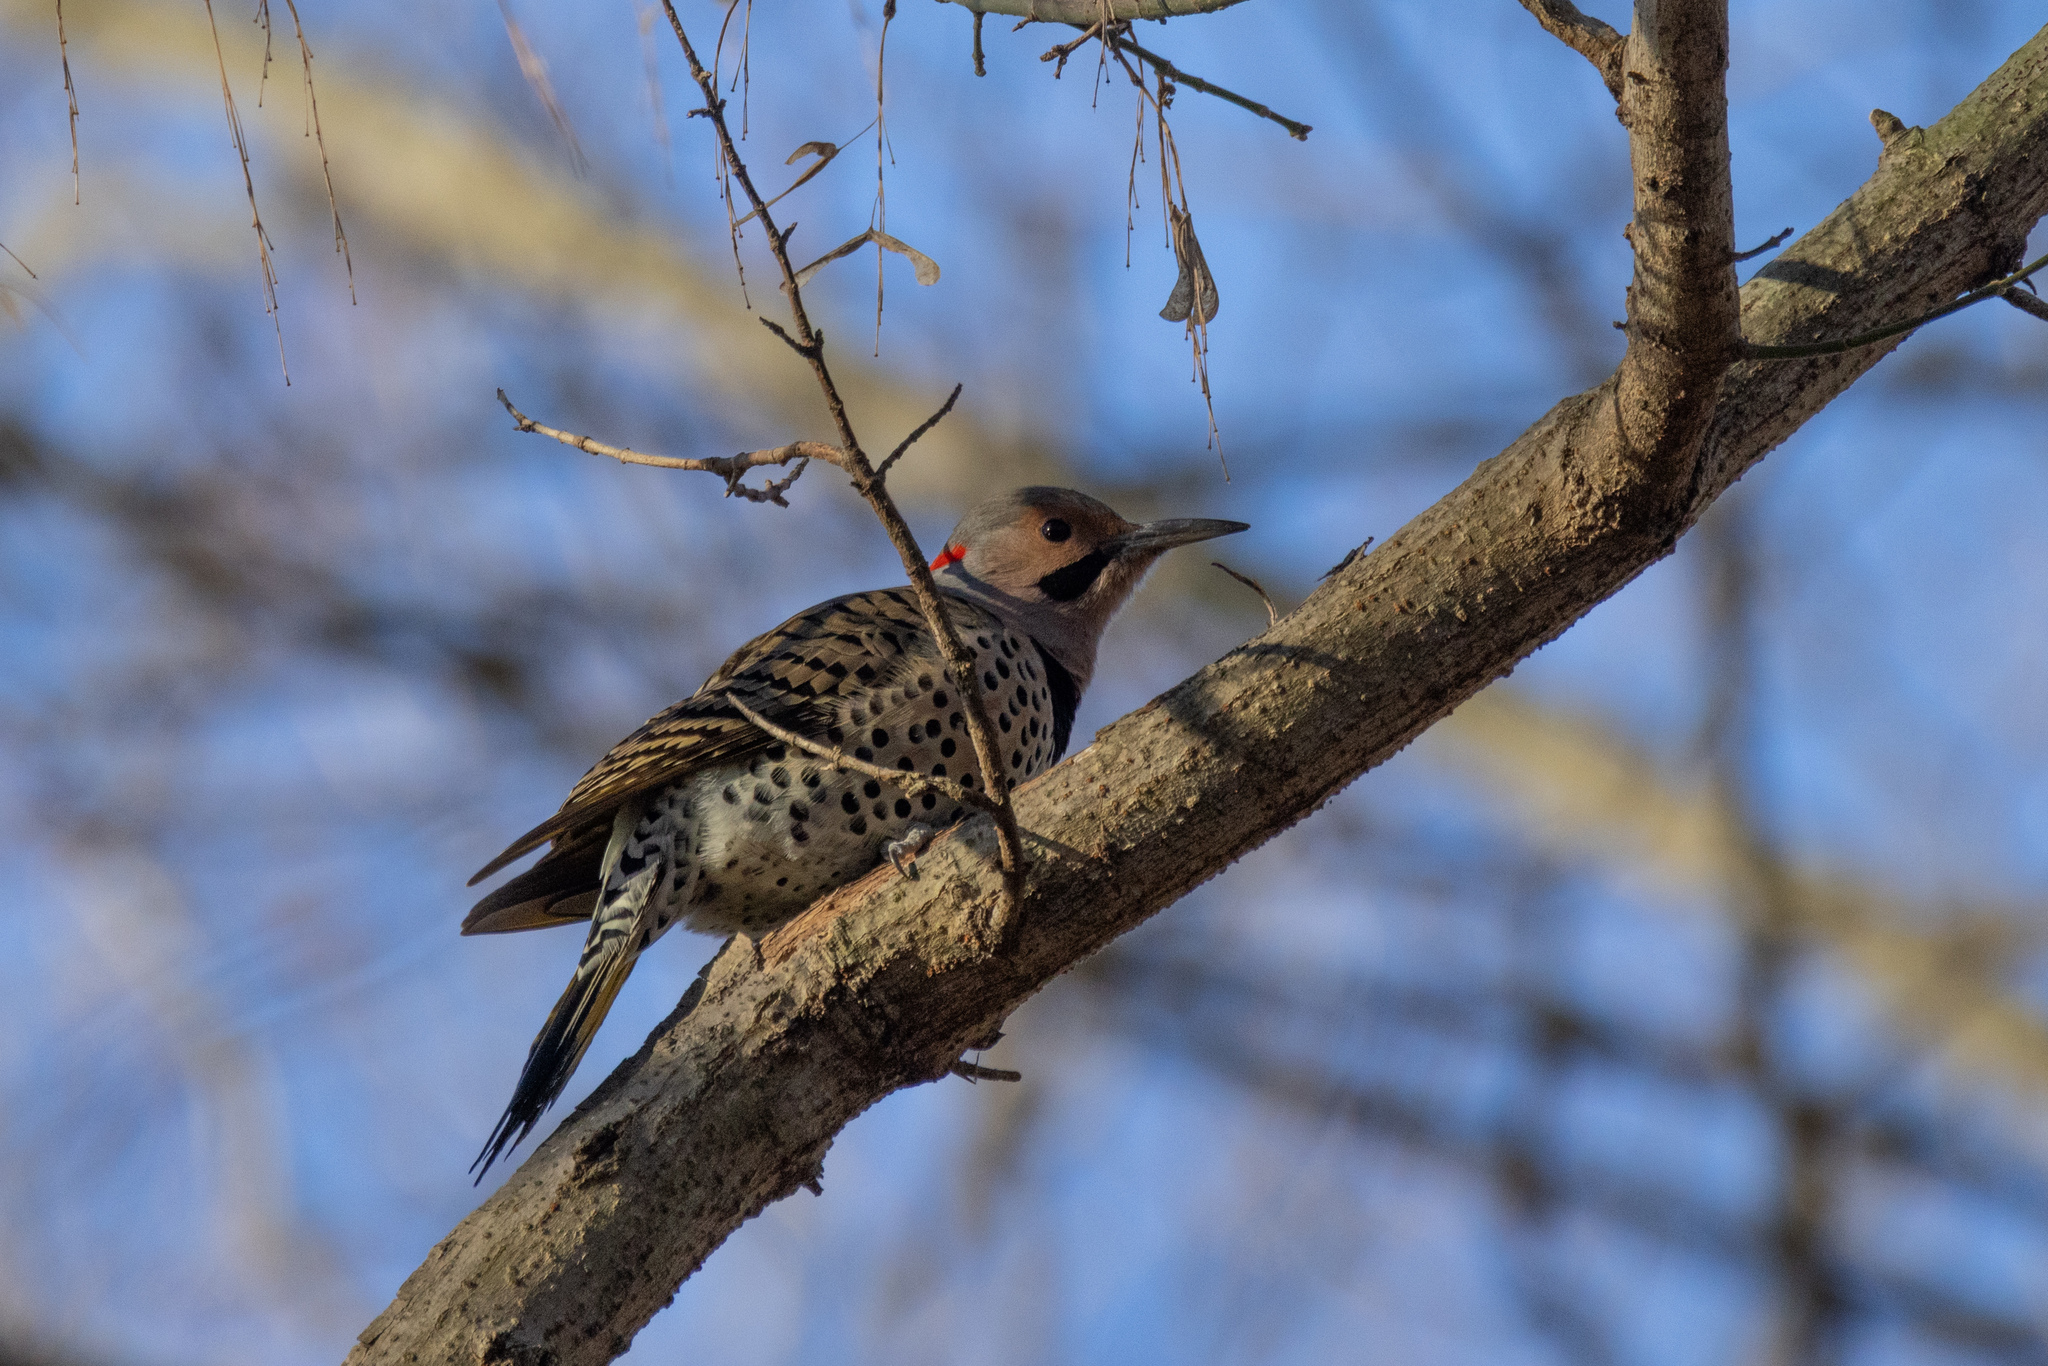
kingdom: Animalia
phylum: Chordata
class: Aves
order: Piciformes
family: Picidae
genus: Colaptes
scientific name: Colaptes auratus
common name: Northern flicker
